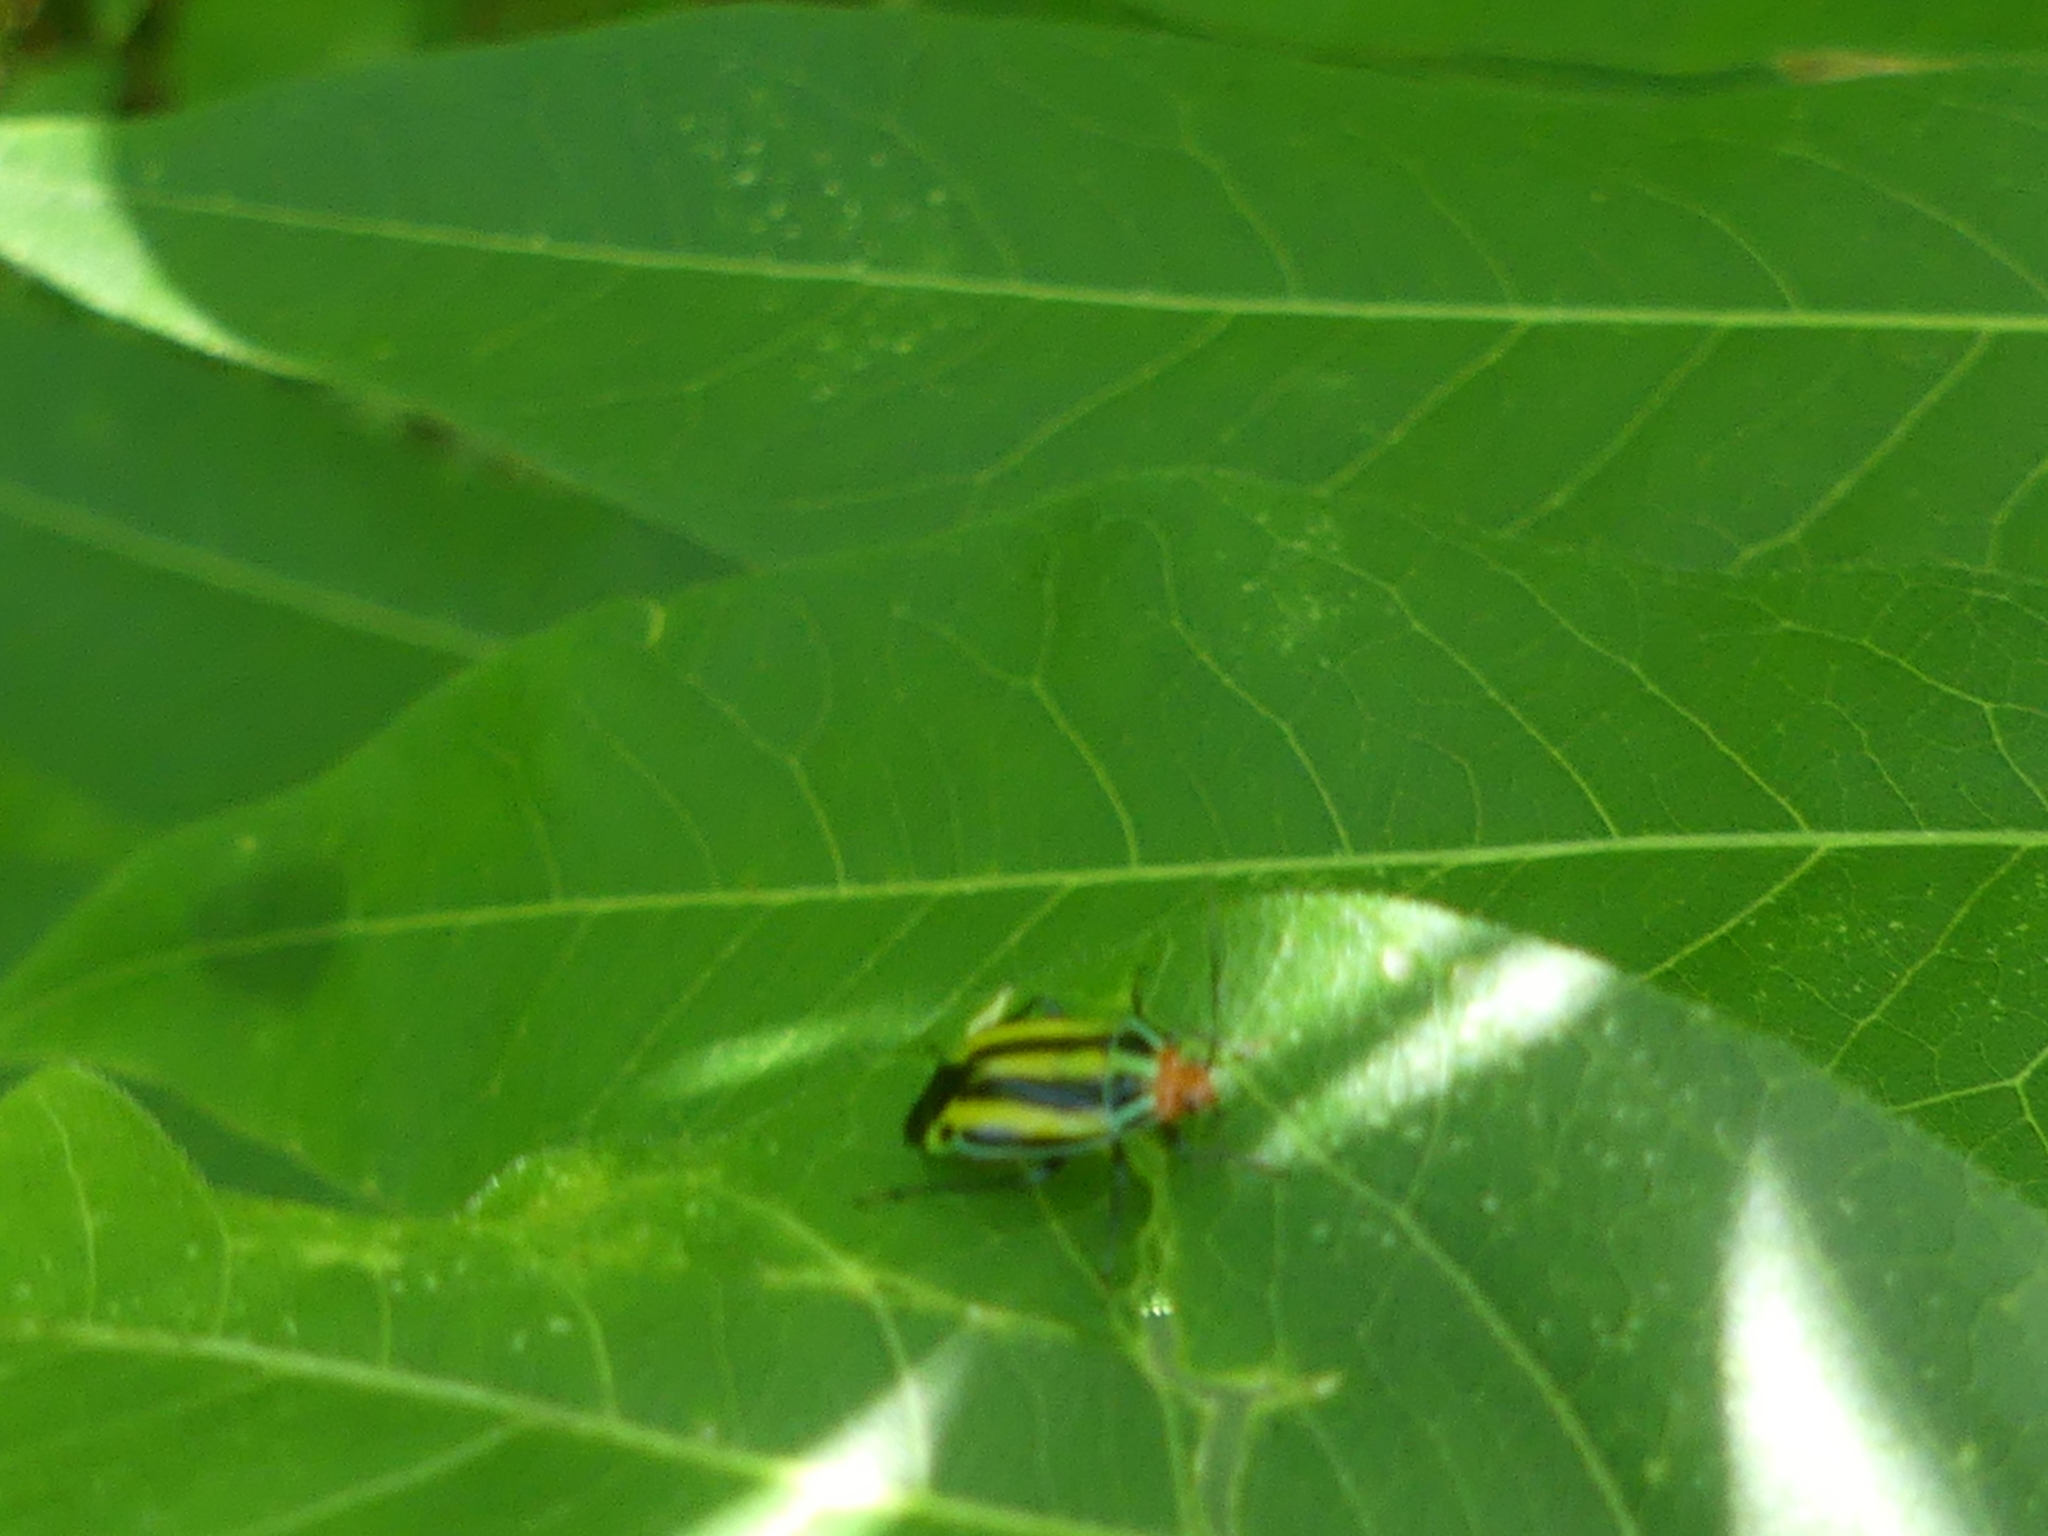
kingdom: Animalia
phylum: Arthropoda
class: Insecta
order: Hemiptera
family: Miridae
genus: Poecilocapsus
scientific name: Poecilocapsus lineatus
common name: Four-lined plant bug
